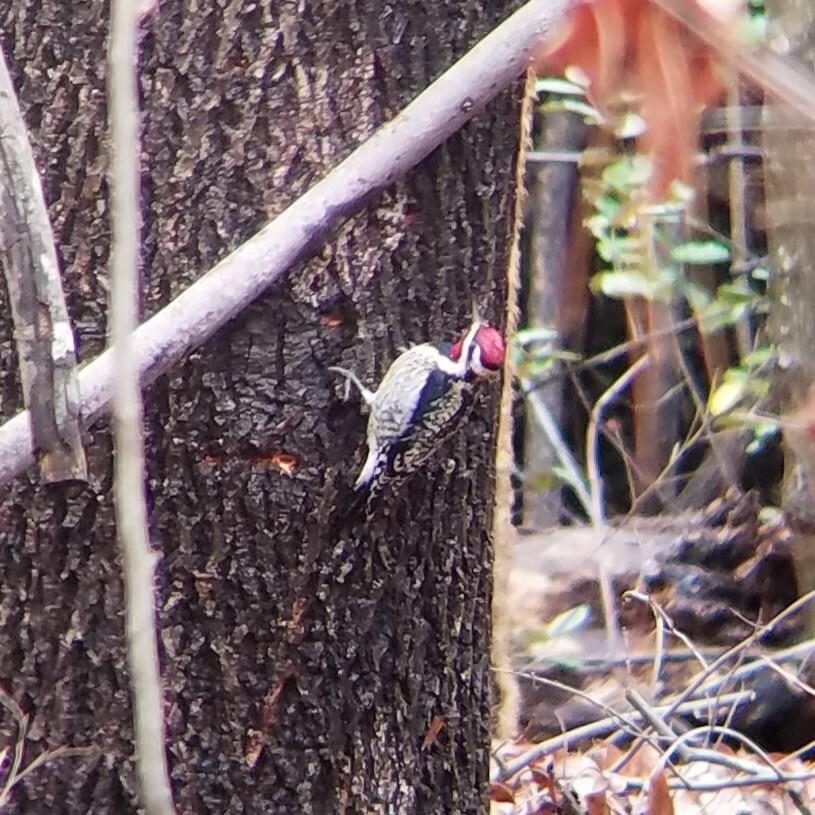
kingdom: Animalia
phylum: Chordata
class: Aves
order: Piciformes
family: Picidae
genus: Sphyrapicus
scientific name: Sphyrapicus varius
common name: Yellow-bellied sapsucker
